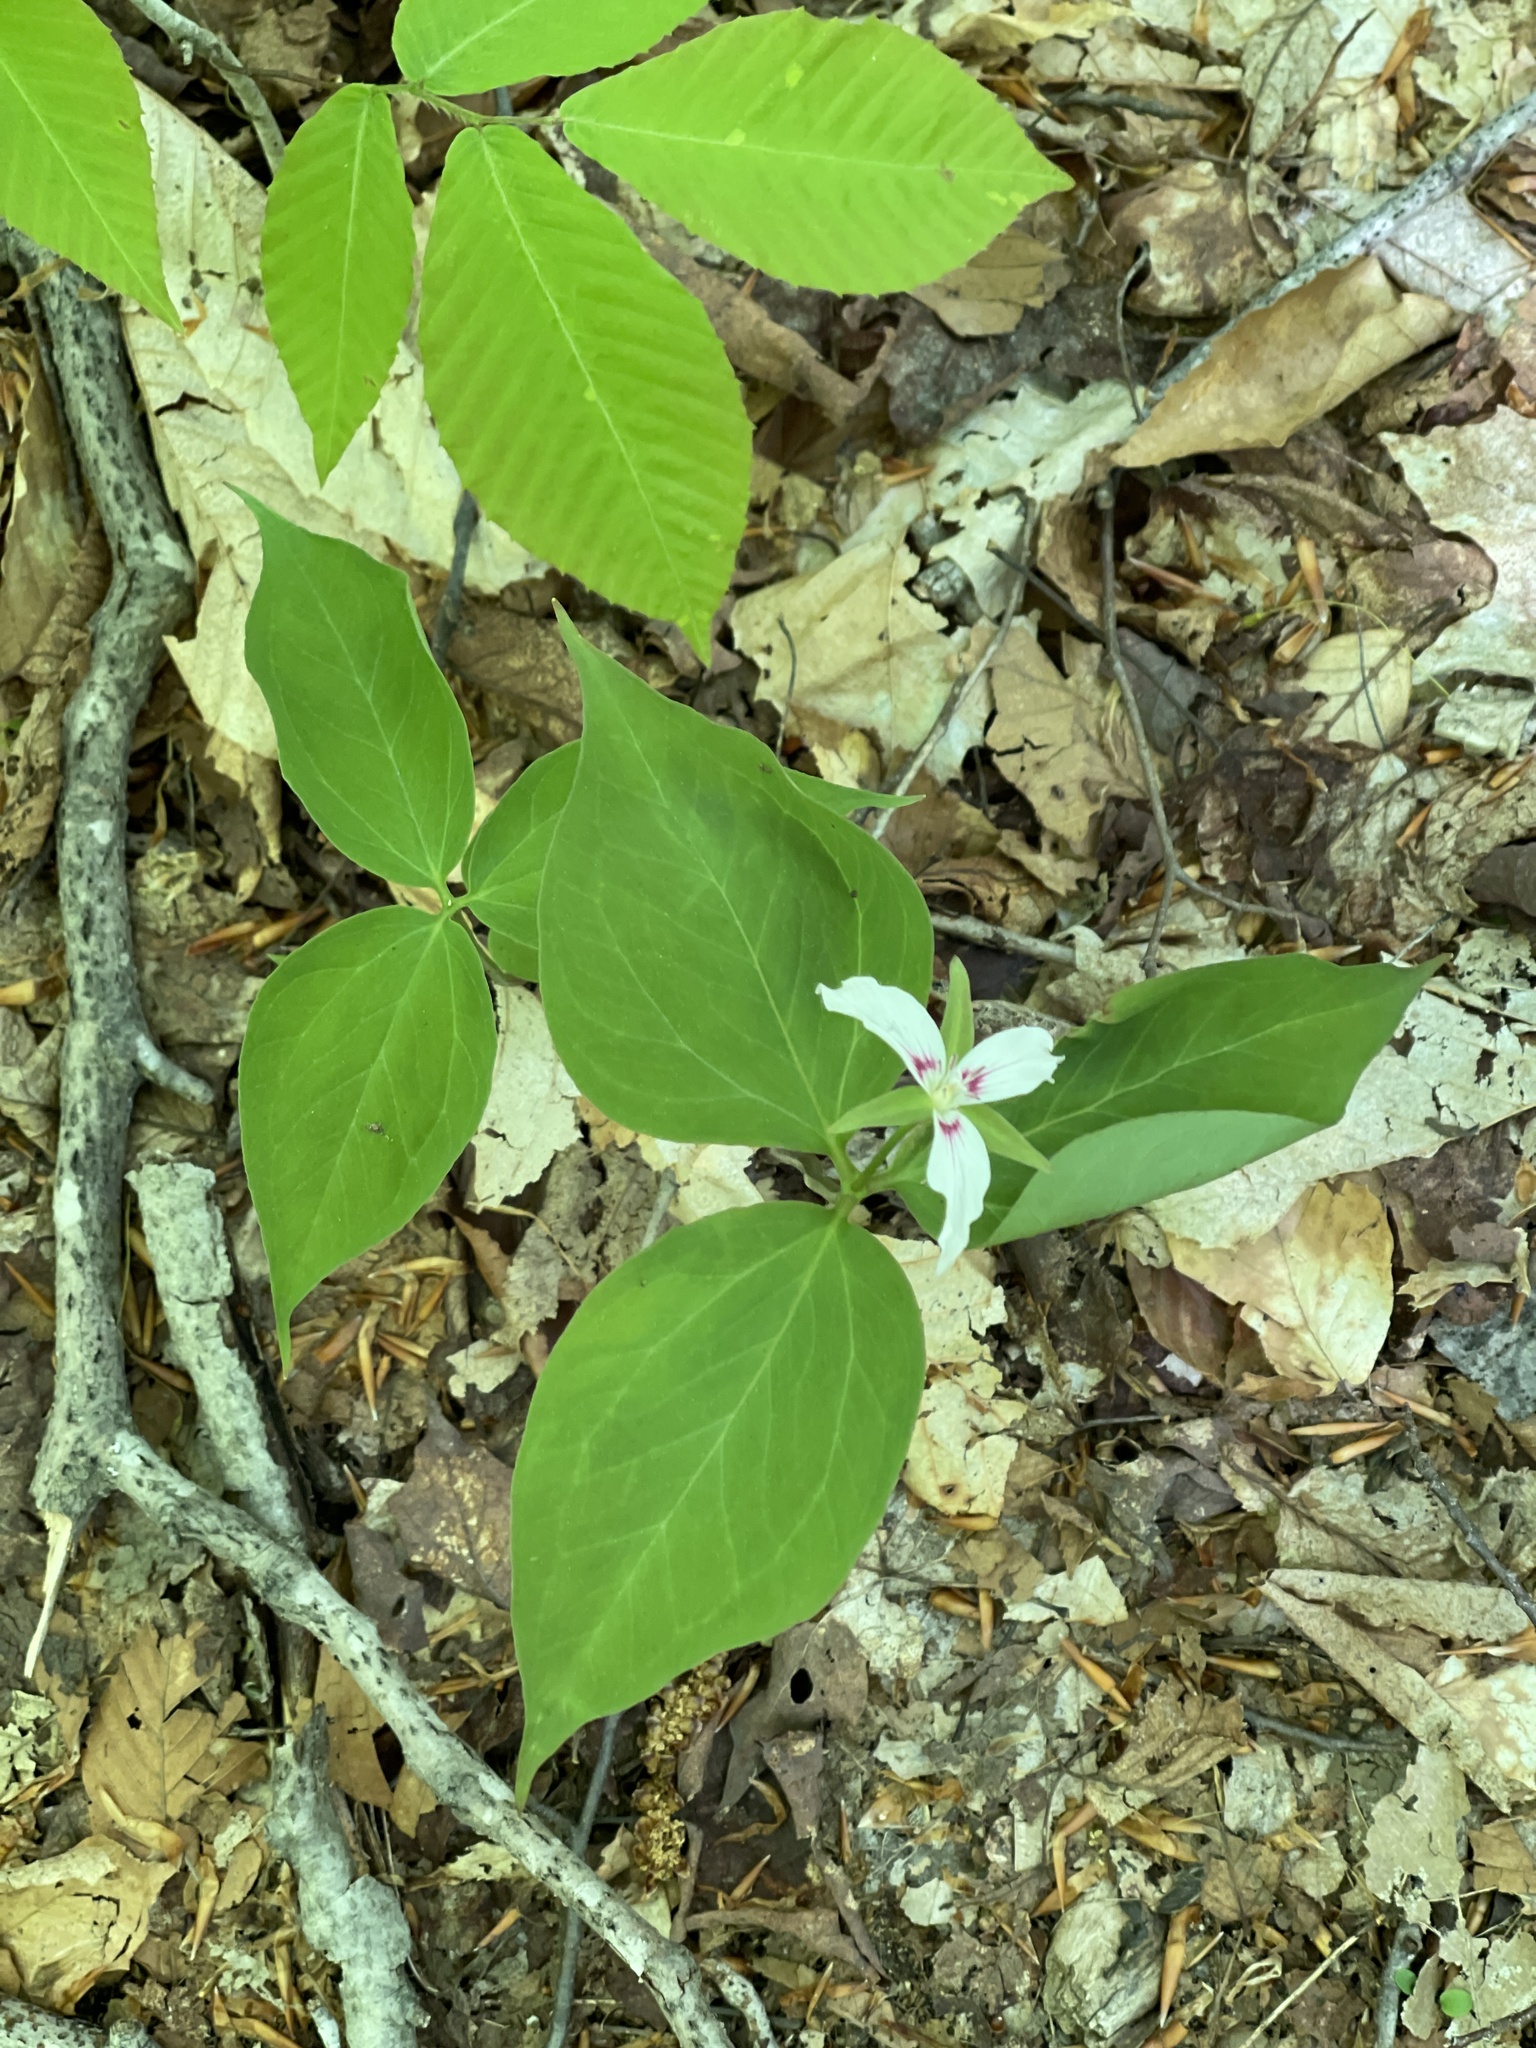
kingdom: Plantae
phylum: Tracheophyta
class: Liliopsida
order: Liliales
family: Melanthiaceae
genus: Trillium
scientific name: Trillium undulatum
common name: Paint trillium
